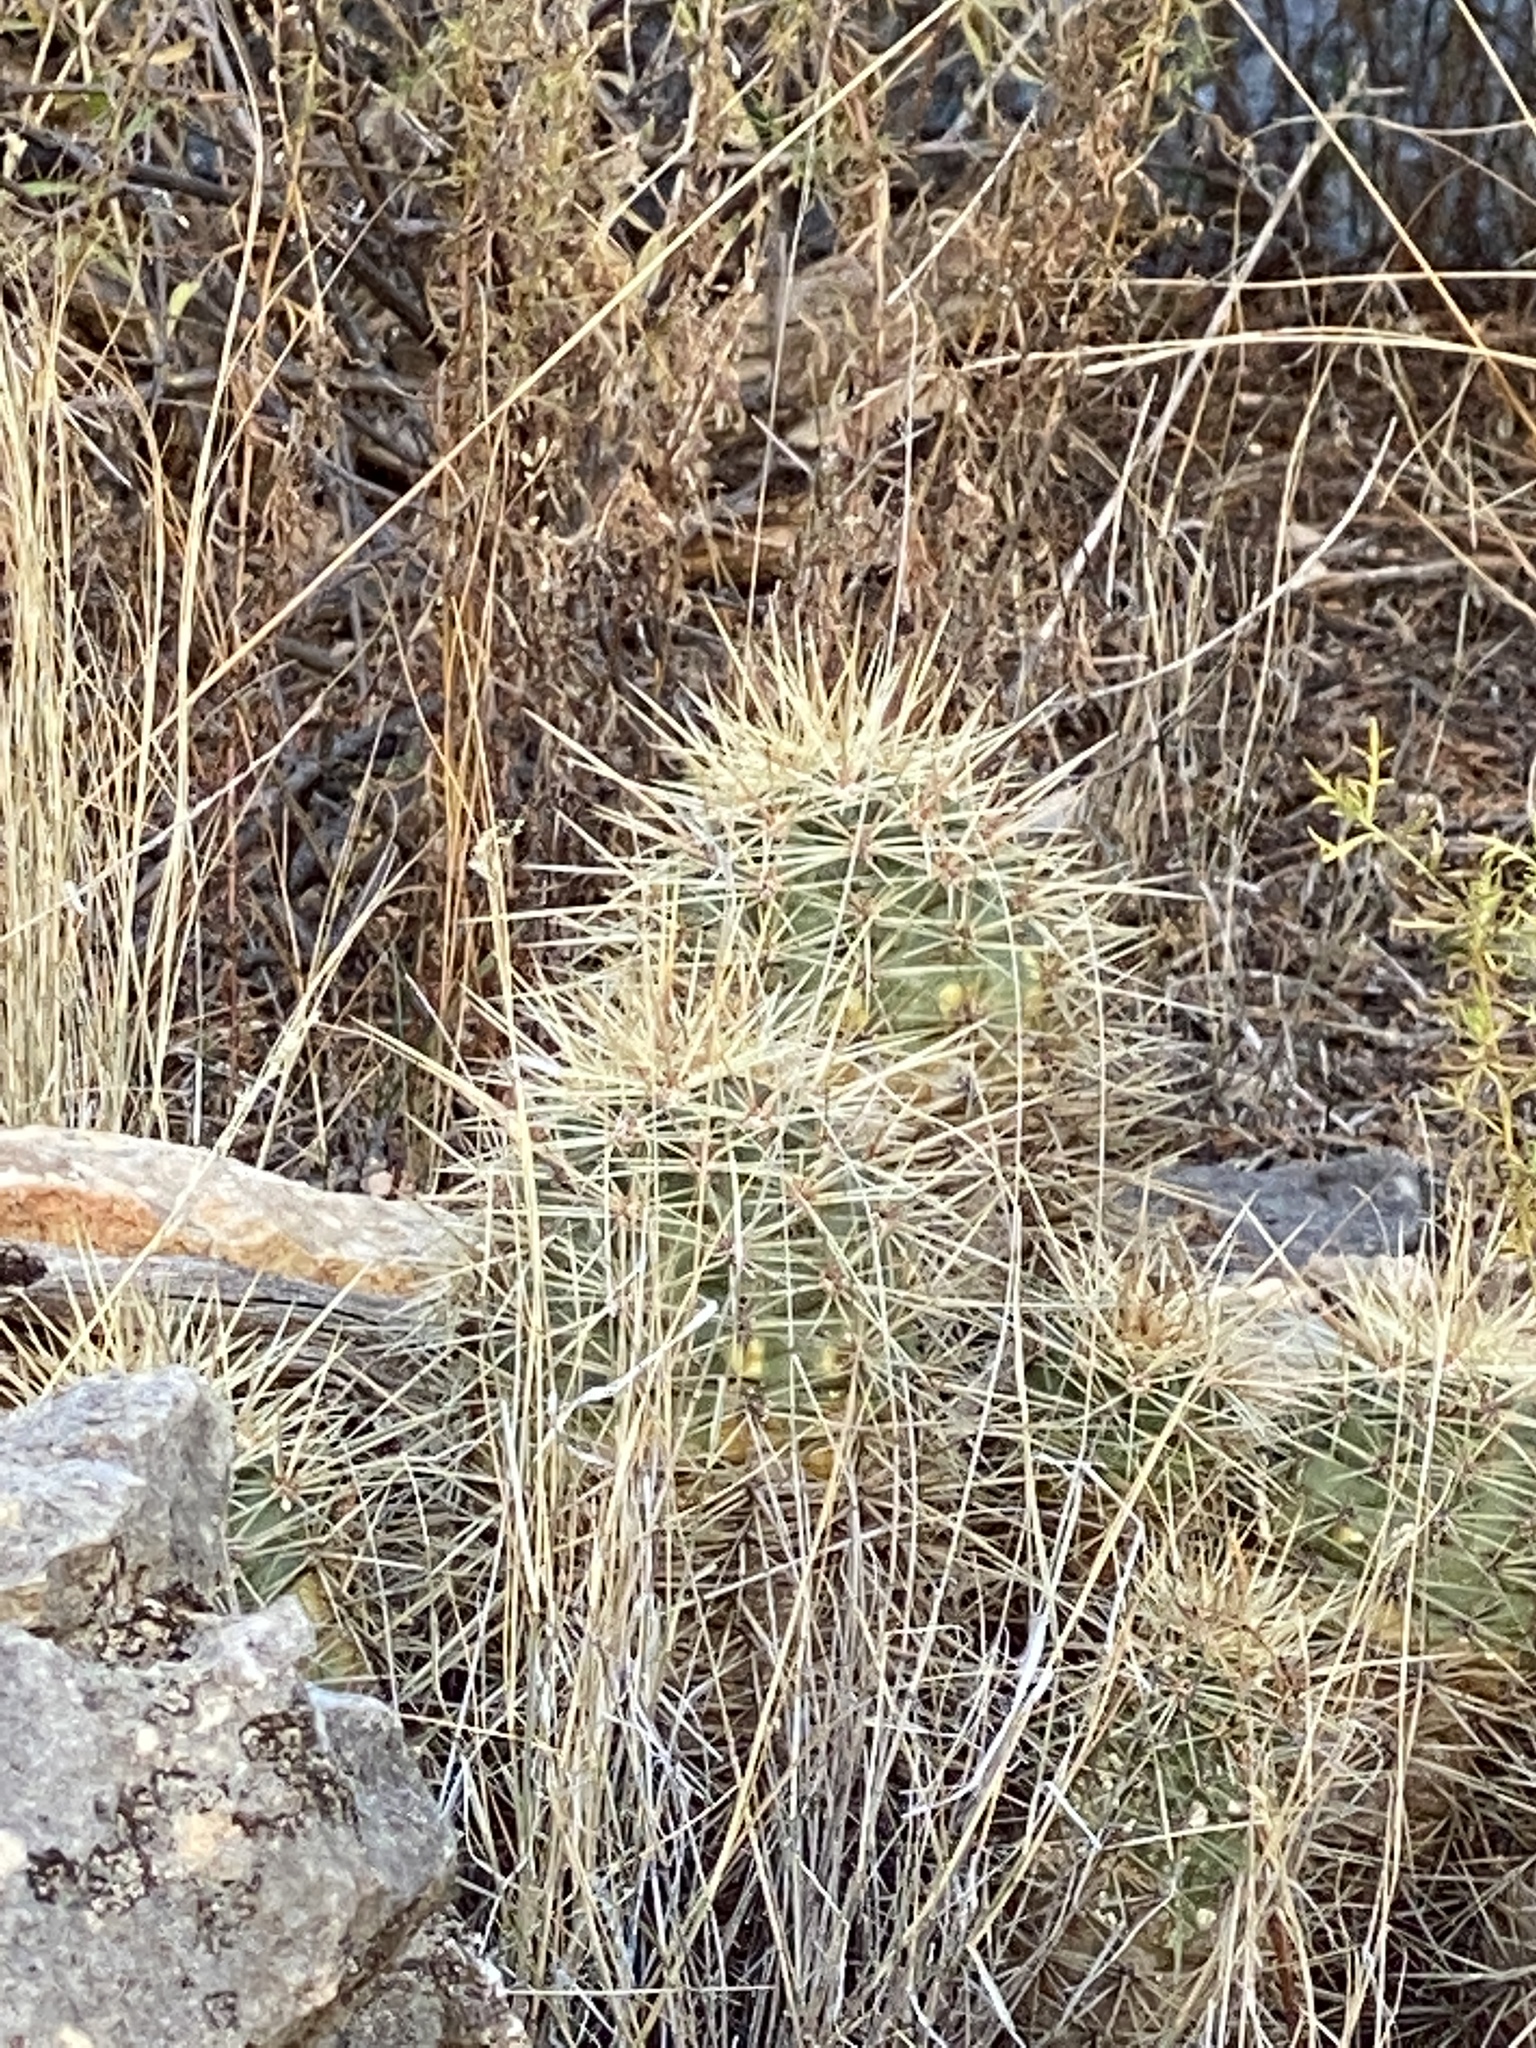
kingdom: Plantae
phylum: Tracheophyta
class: Magnoliopsida
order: Caryophyllales
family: Cactaceae
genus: Echinocereus
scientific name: Echinocereus coccineus
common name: Scarlet hedgehog cactus
